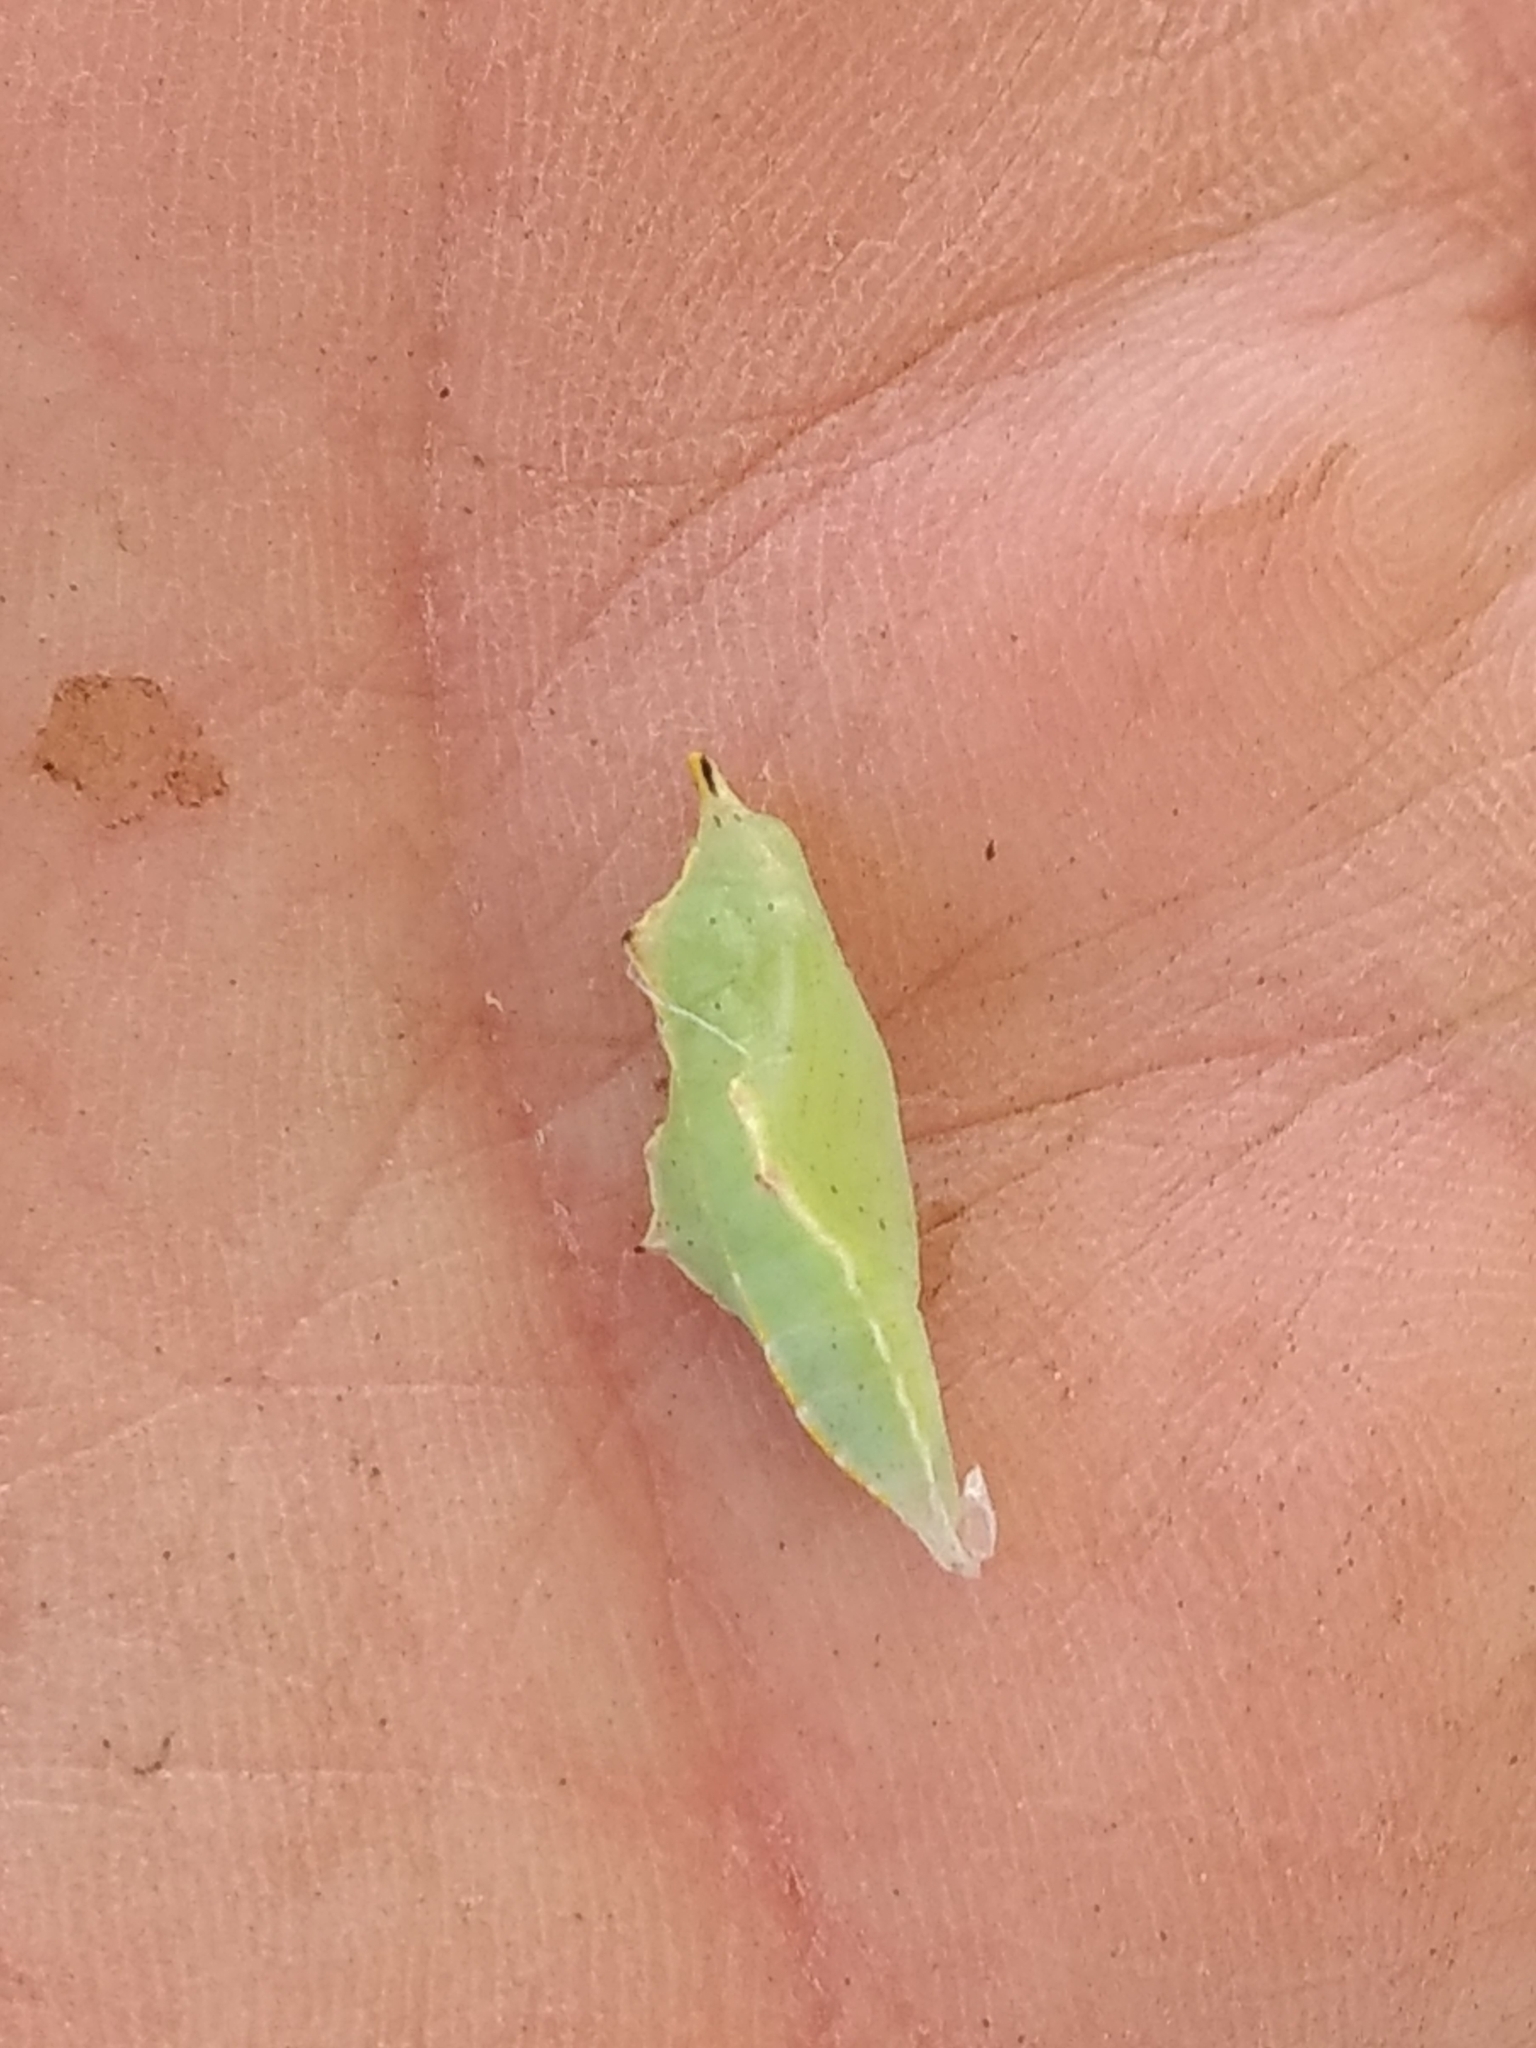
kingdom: Animalia
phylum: Arthropoda
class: Insecta
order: Lepidoptera
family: Pieridae
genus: Pieris
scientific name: Pieris rapae
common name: Small white
